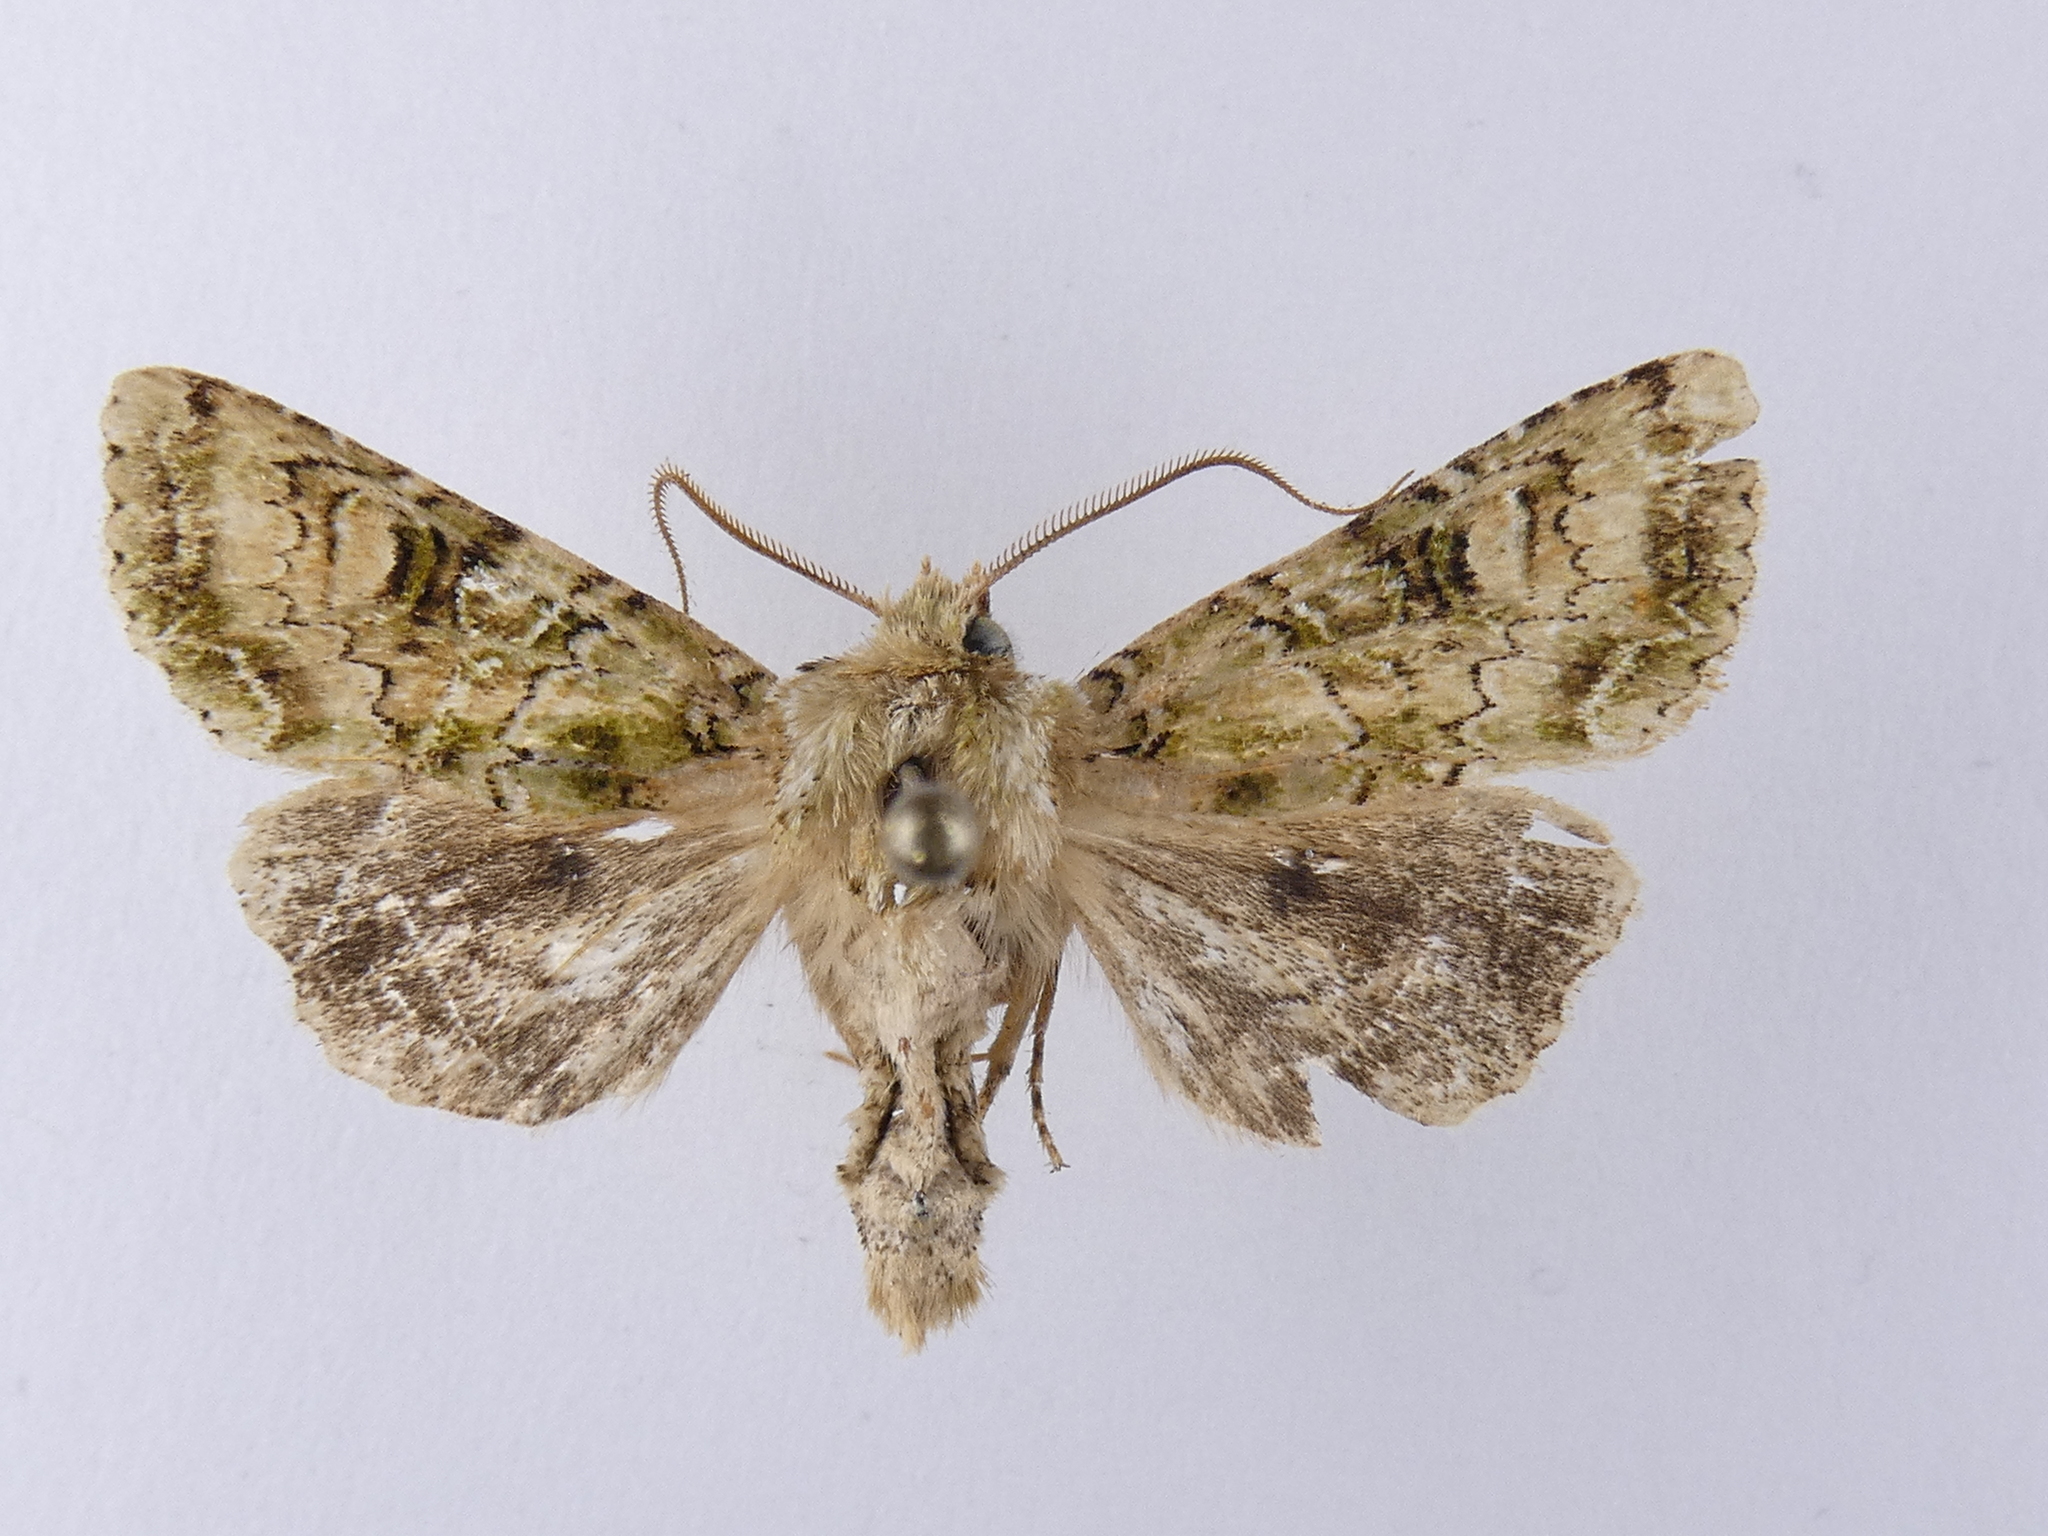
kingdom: Animalia
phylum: Arthropoda
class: Insecta
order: Lepidoptera
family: Noctuidae
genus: Ichneutica
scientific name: Ichneutica
